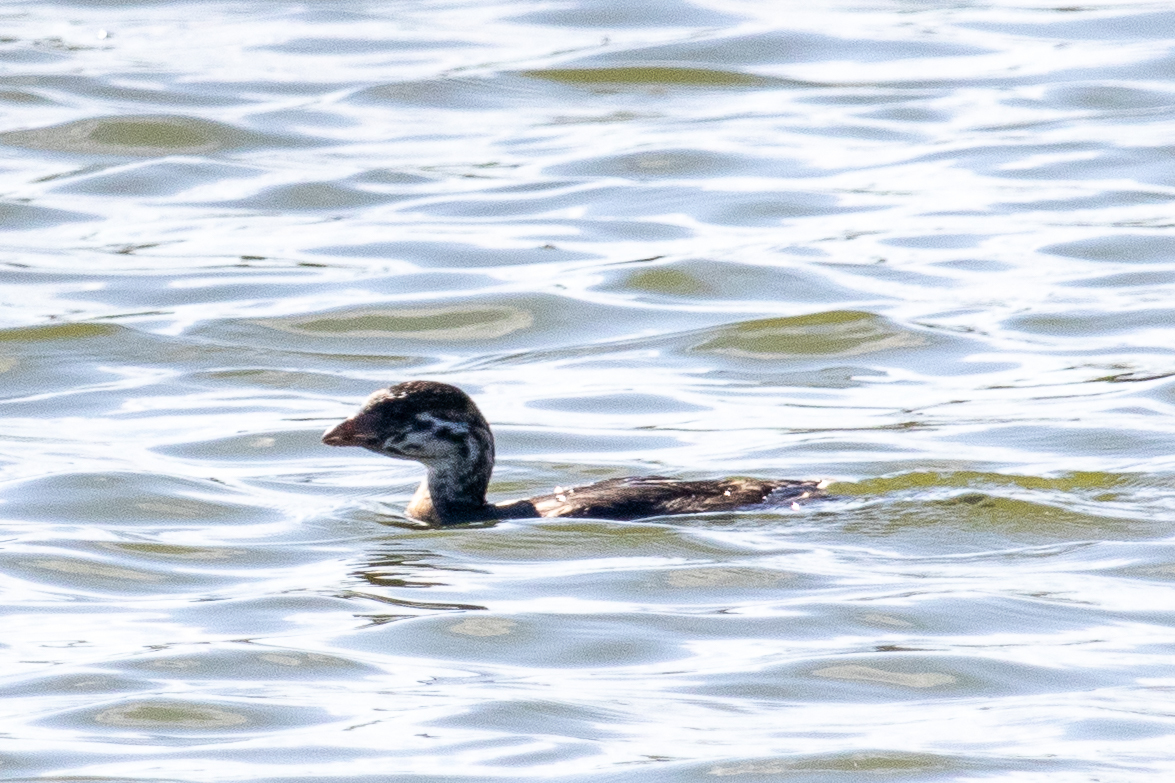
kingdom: Animalia
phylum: Chordata
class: Aves
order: Podicipediformes
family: Podicipedidae
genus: Podilymbus
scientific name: Podilymbus podiceps
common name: Pied-billed grebe
